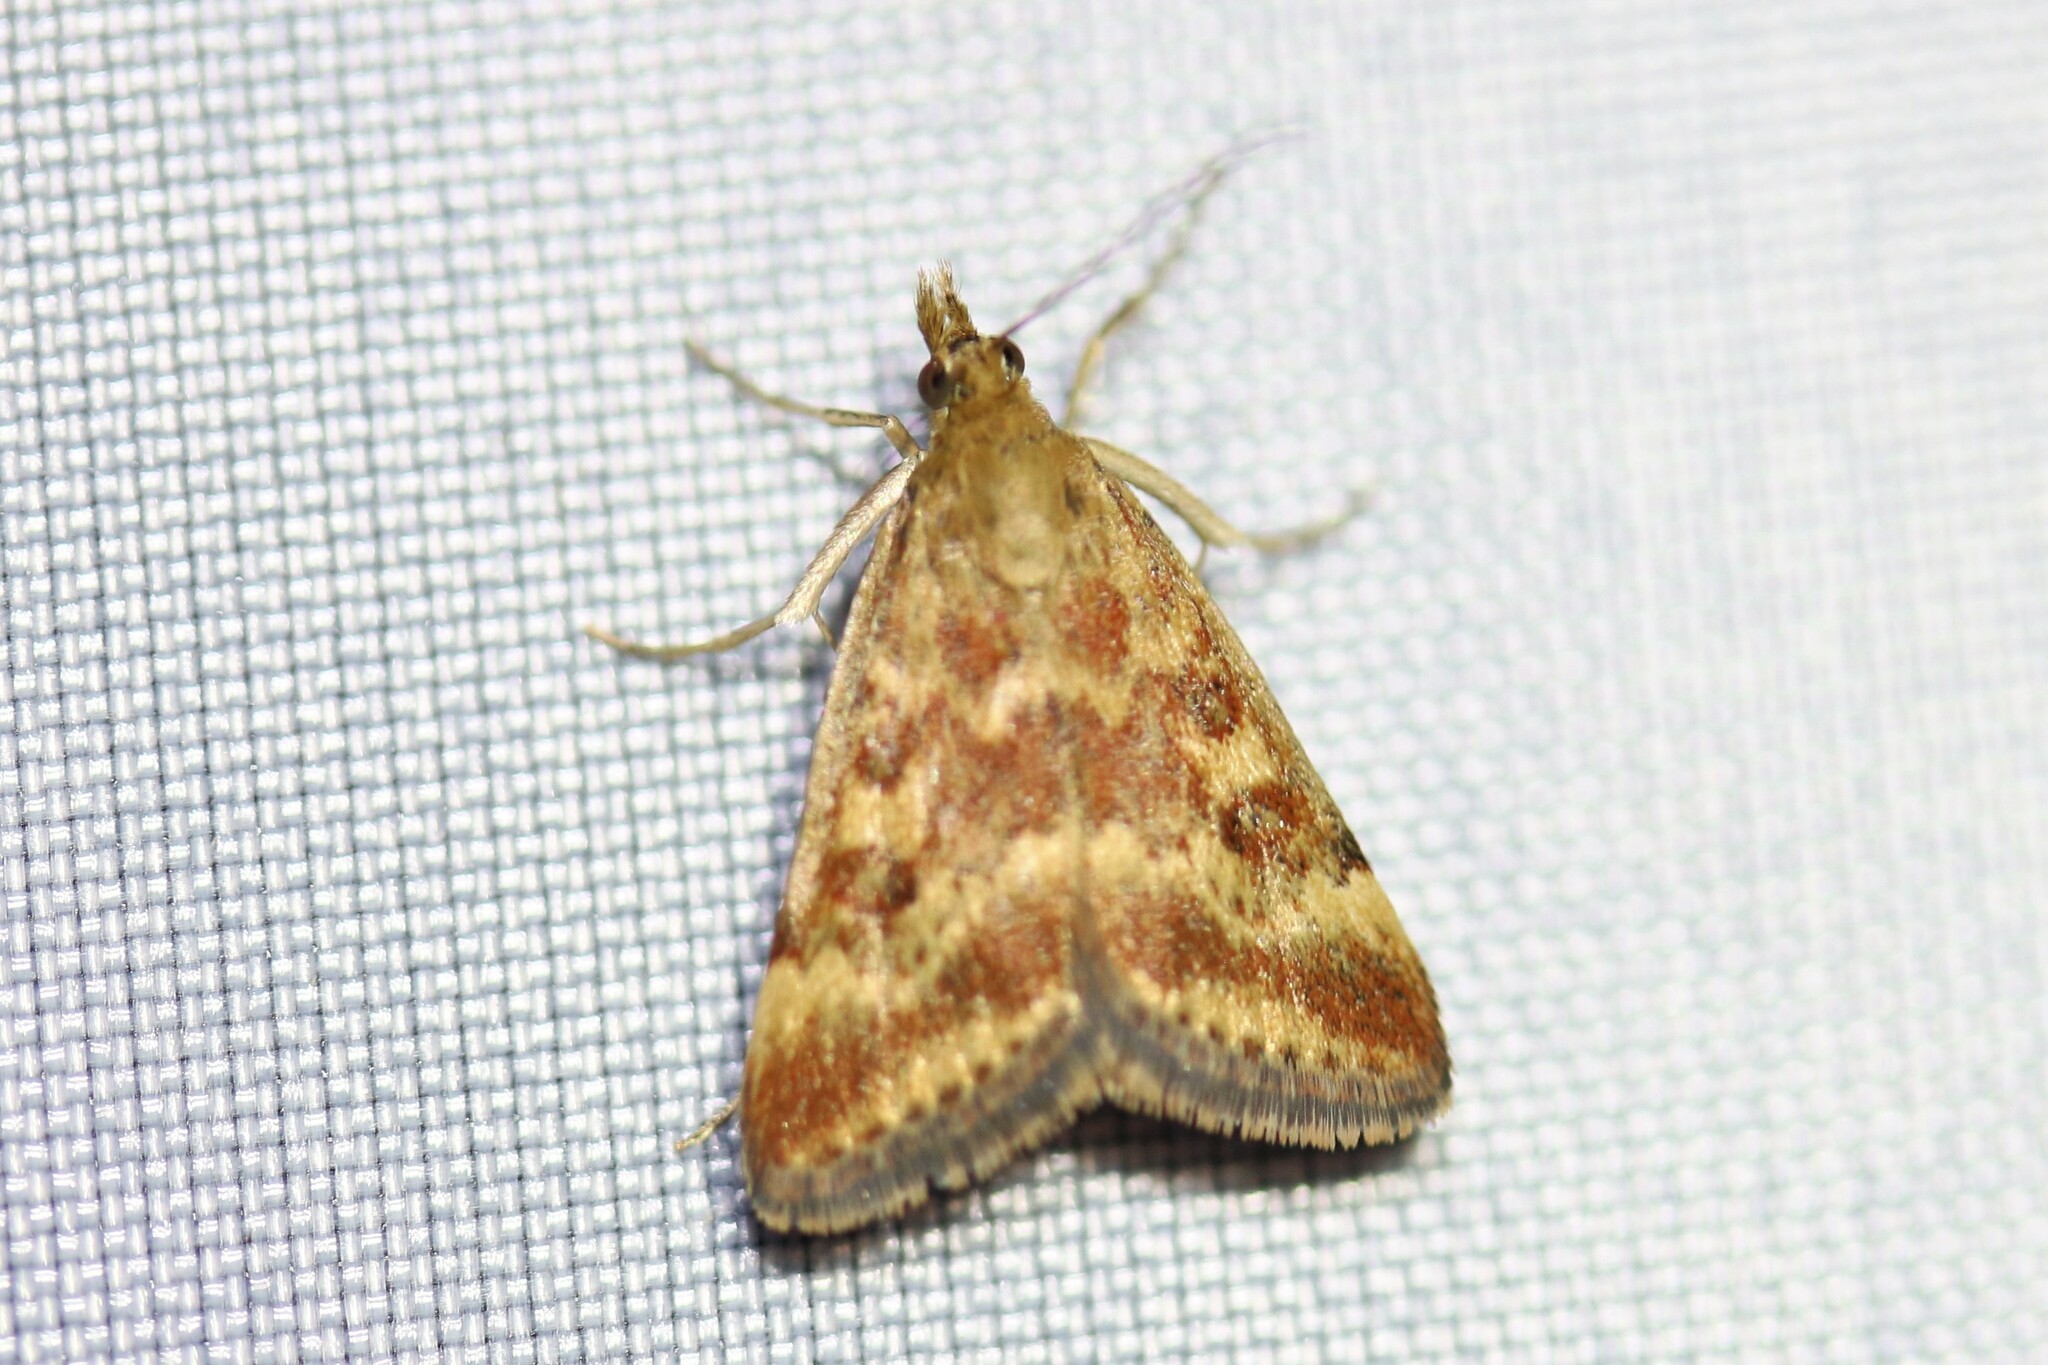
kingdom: Animalia
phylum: Arthropoda
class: Insecta
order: Lepidoptera
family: Crambidae
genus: Pyrausta
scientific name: Pyrausta despicata
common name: Straw-barred pearl
